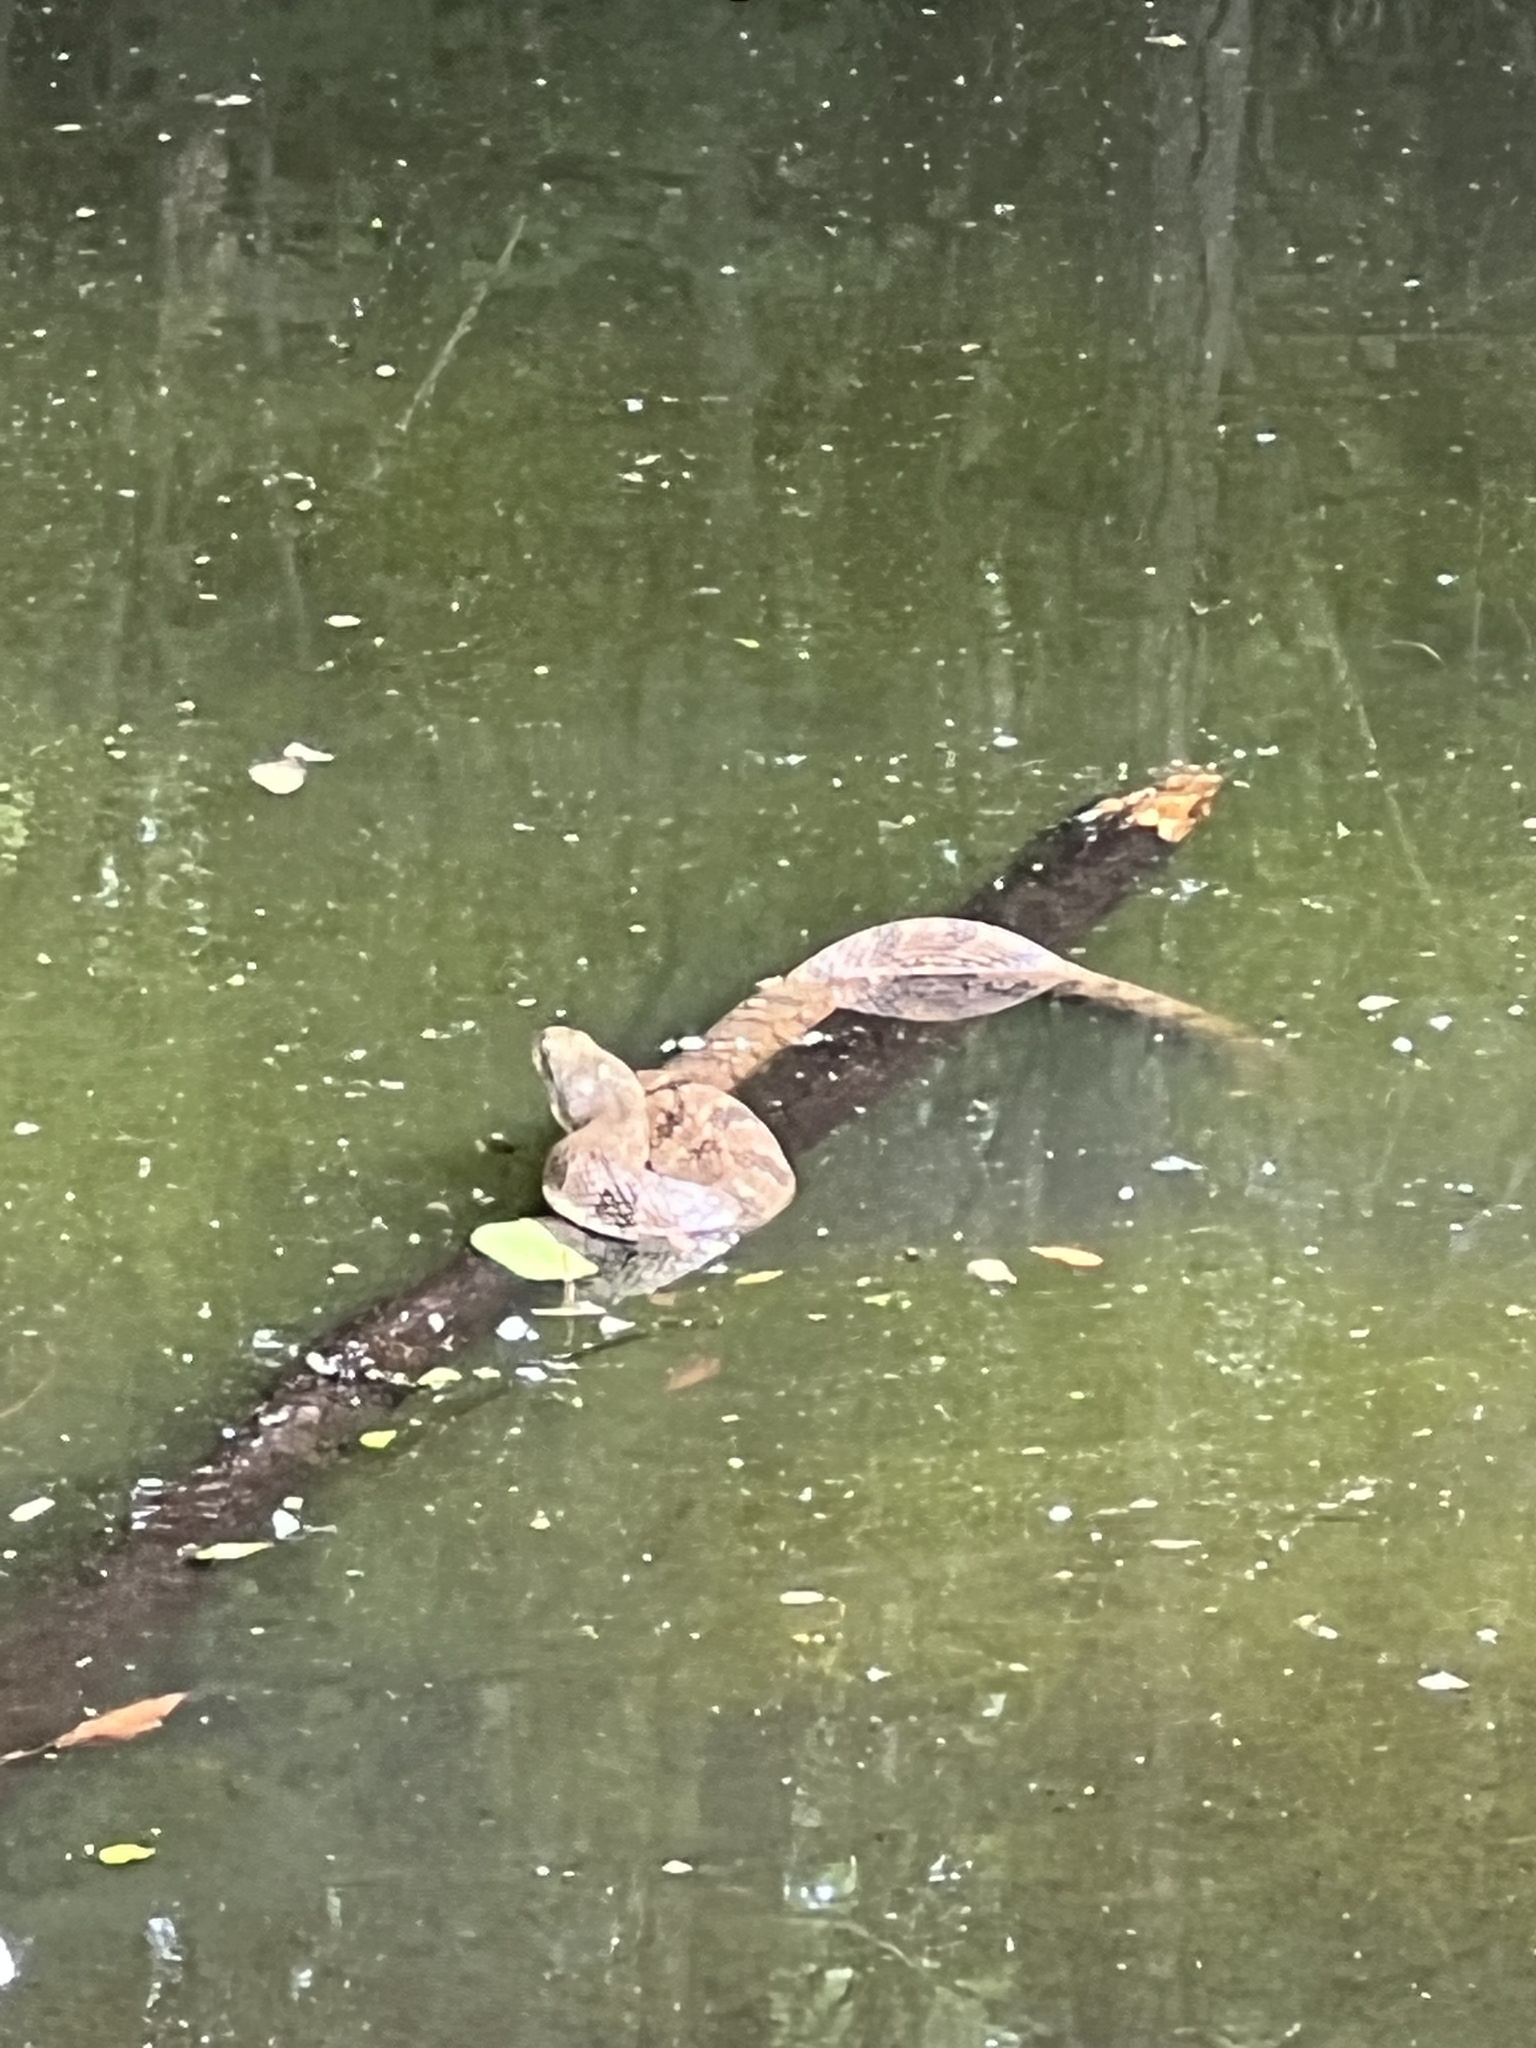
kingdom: Animalia
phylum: Chordata
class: Squamata
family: Colubridae
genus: Nerodia
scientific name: Nerodia rhombifer
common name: Diamondback water snake
